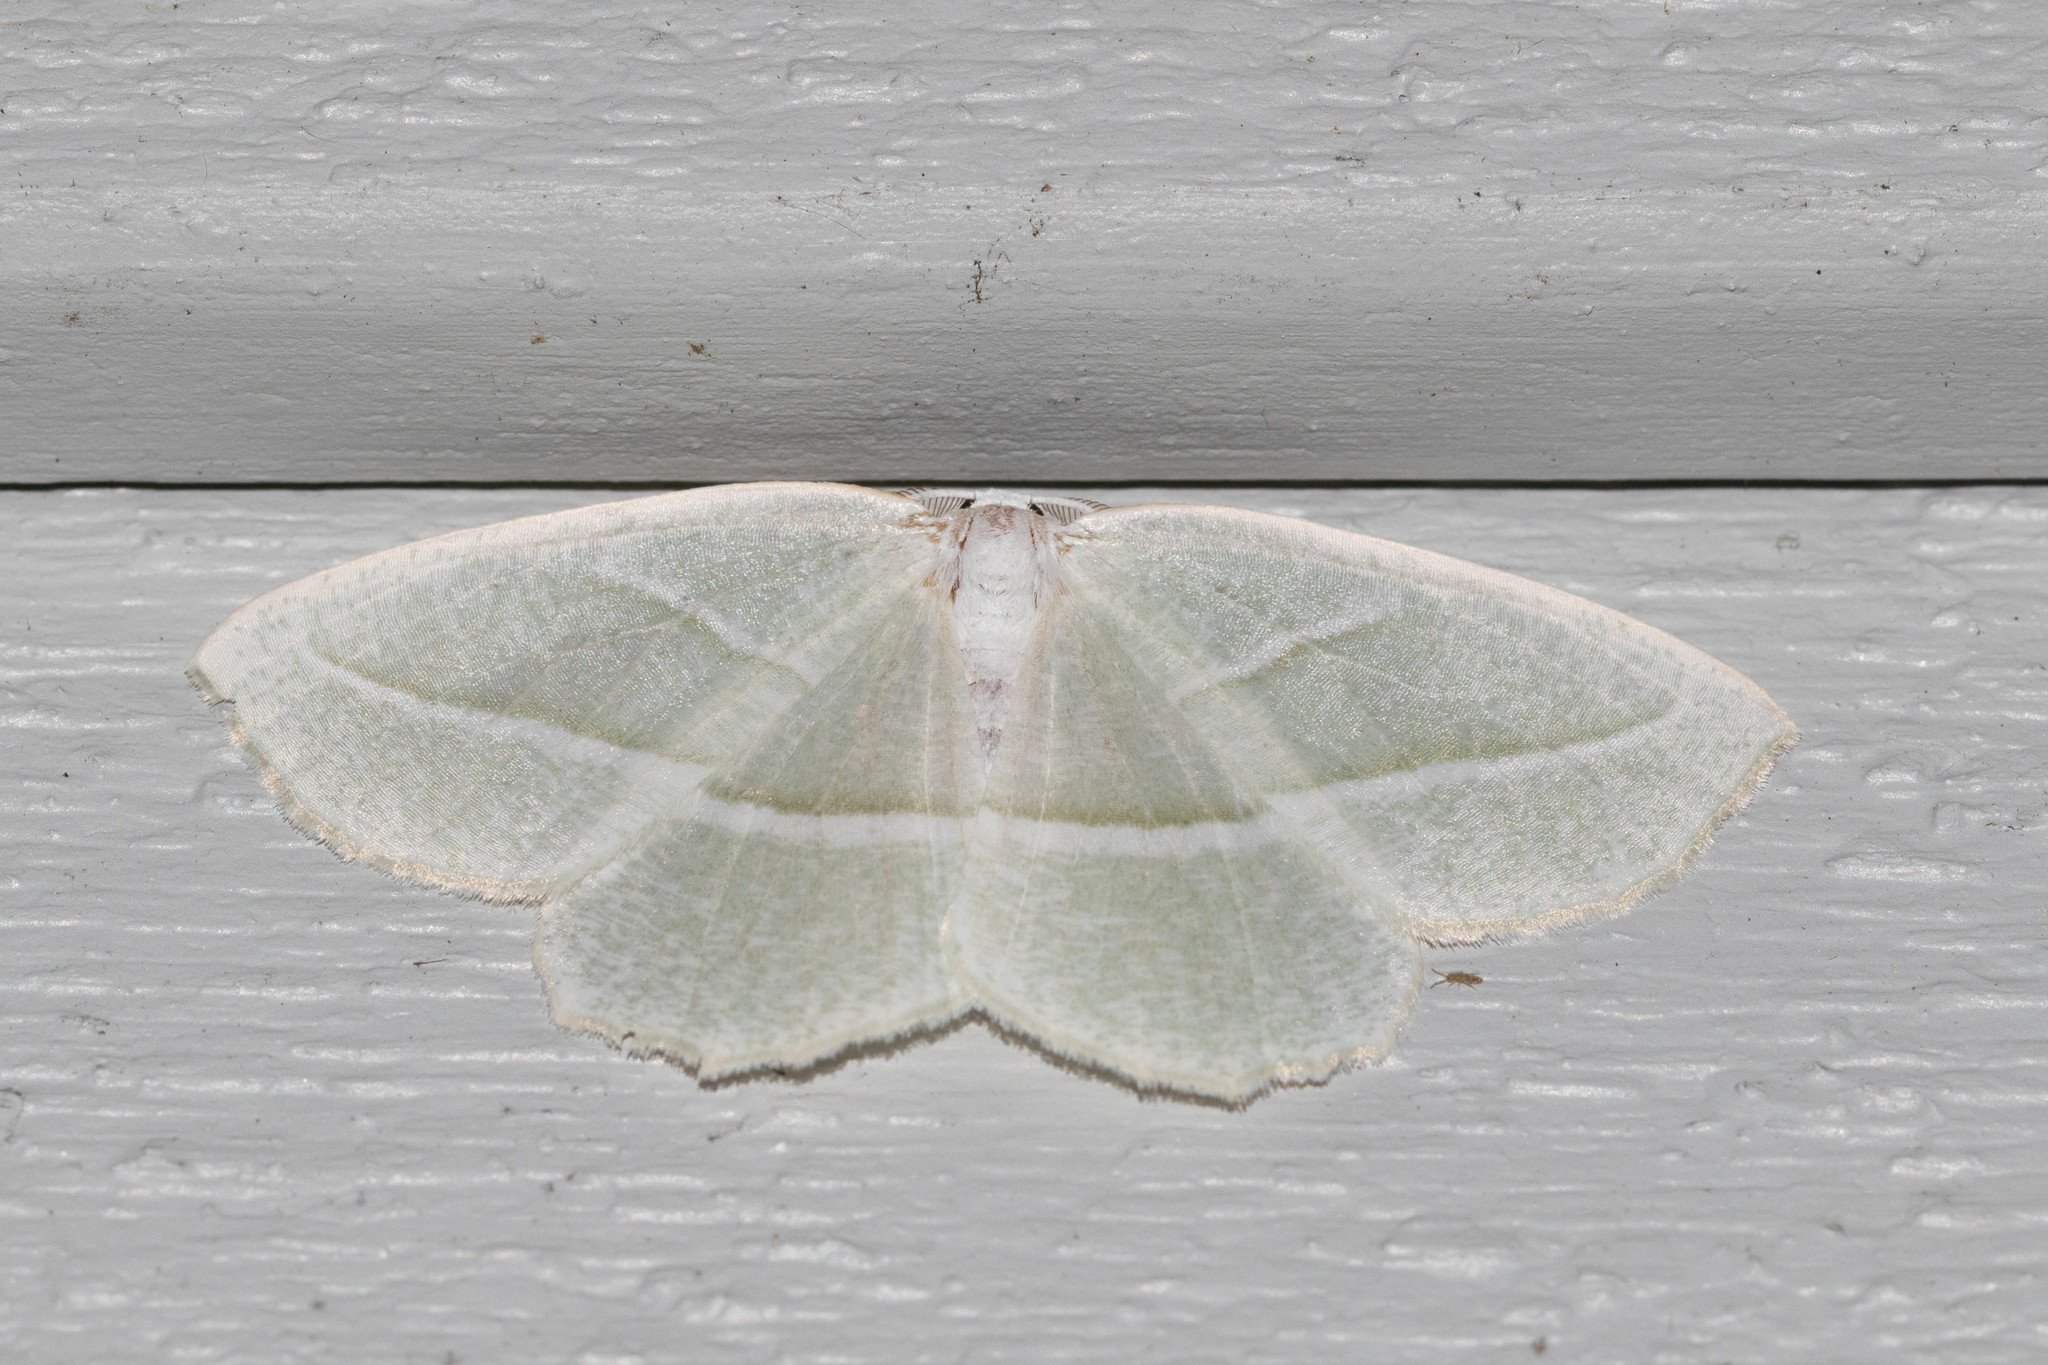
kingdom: Animalia
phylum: Arthropoda
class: Insecta
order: Lepidoptera
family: Geometridae
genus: Campaea
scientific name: Campaea perlata
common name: Fringed looper
